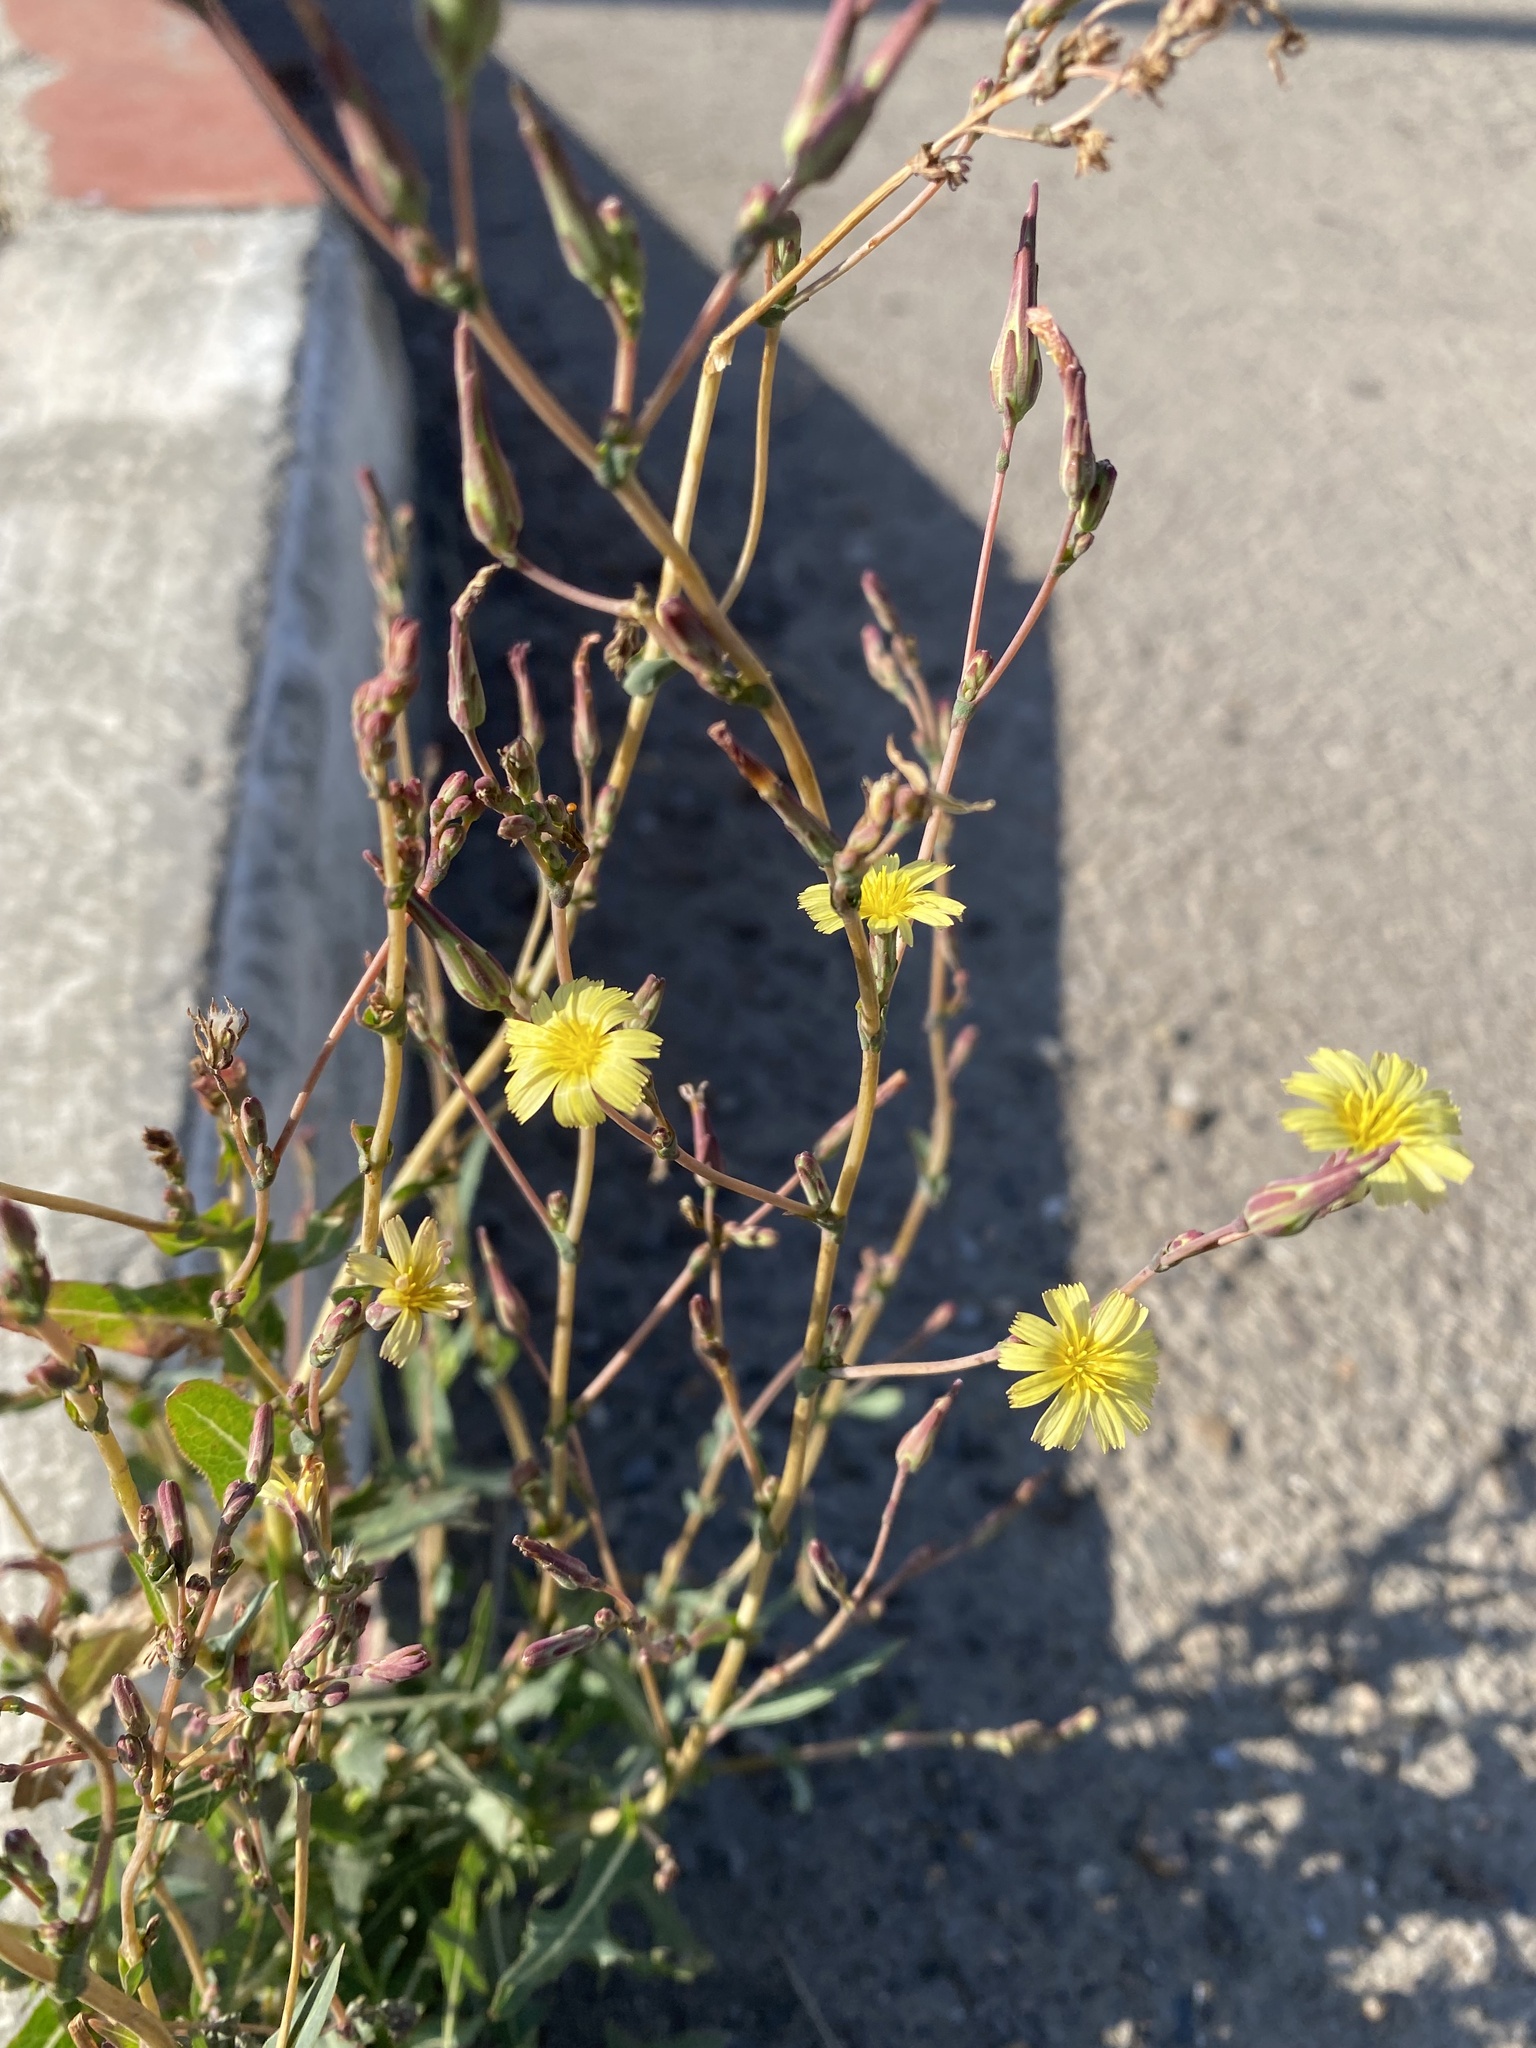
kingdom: Plantae
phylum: Tracheophyta
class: Magnoliopsida
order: Asterales
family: Asteraceae
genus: Lactuca
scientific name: Lactuca serriola
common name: Prickly lettuce
